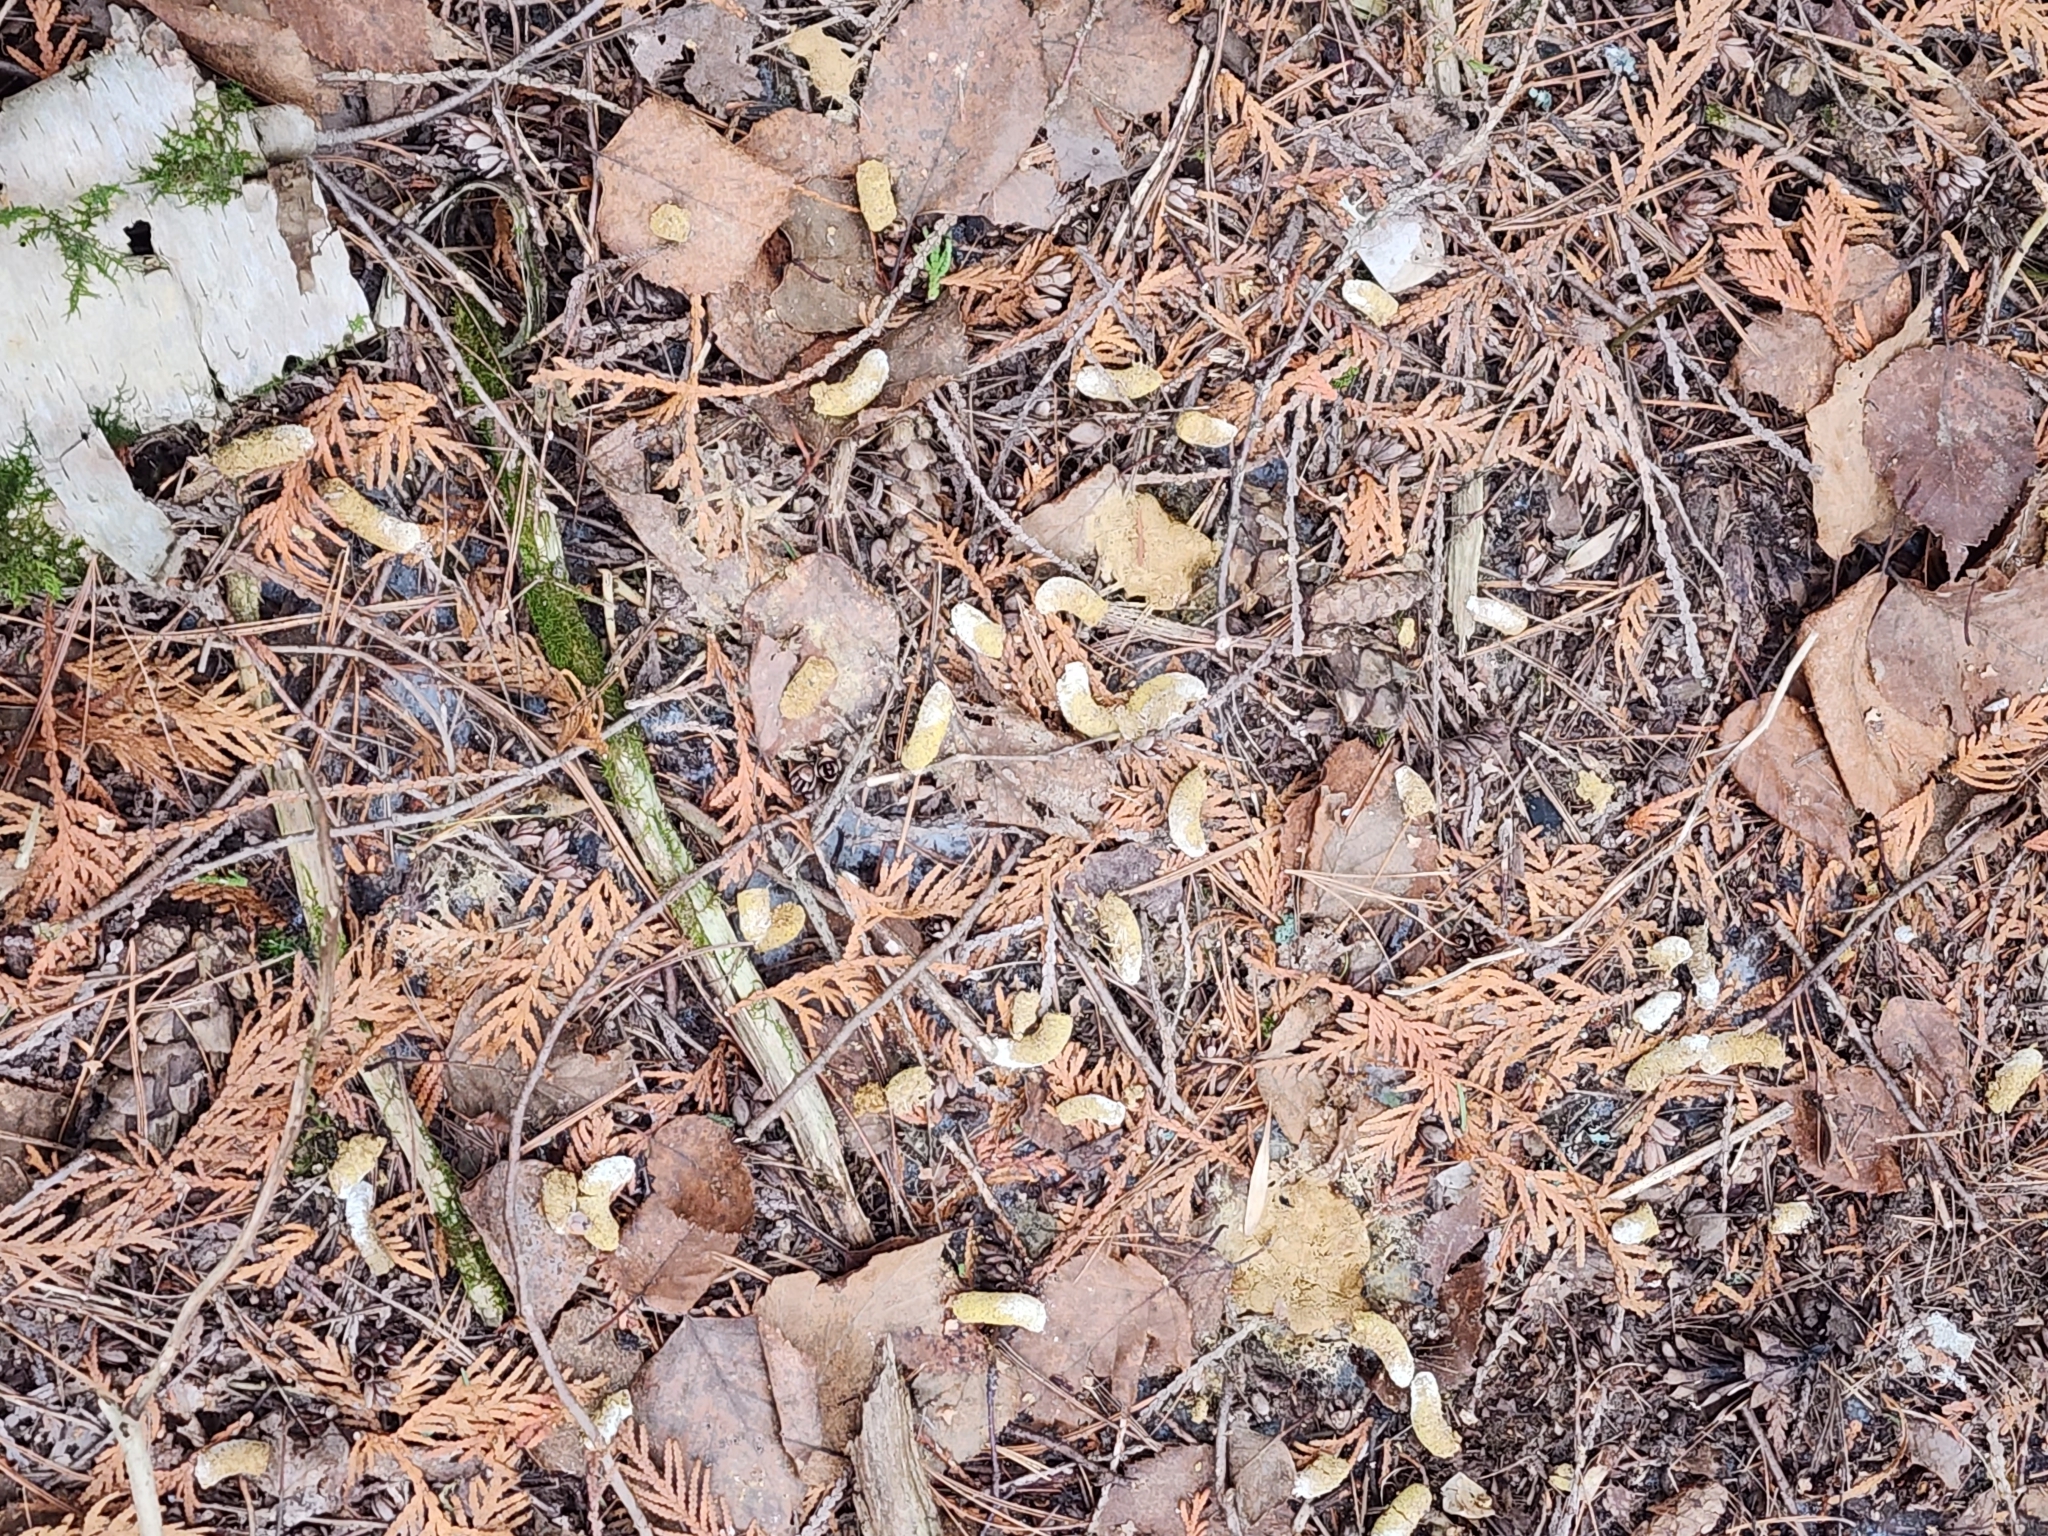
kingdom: Animalia
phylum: Chordata
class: Aves
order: Galliformes
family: Phasianidae
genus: Bonasa
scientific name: Bonasa umbellus
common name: Ruffed grouse
